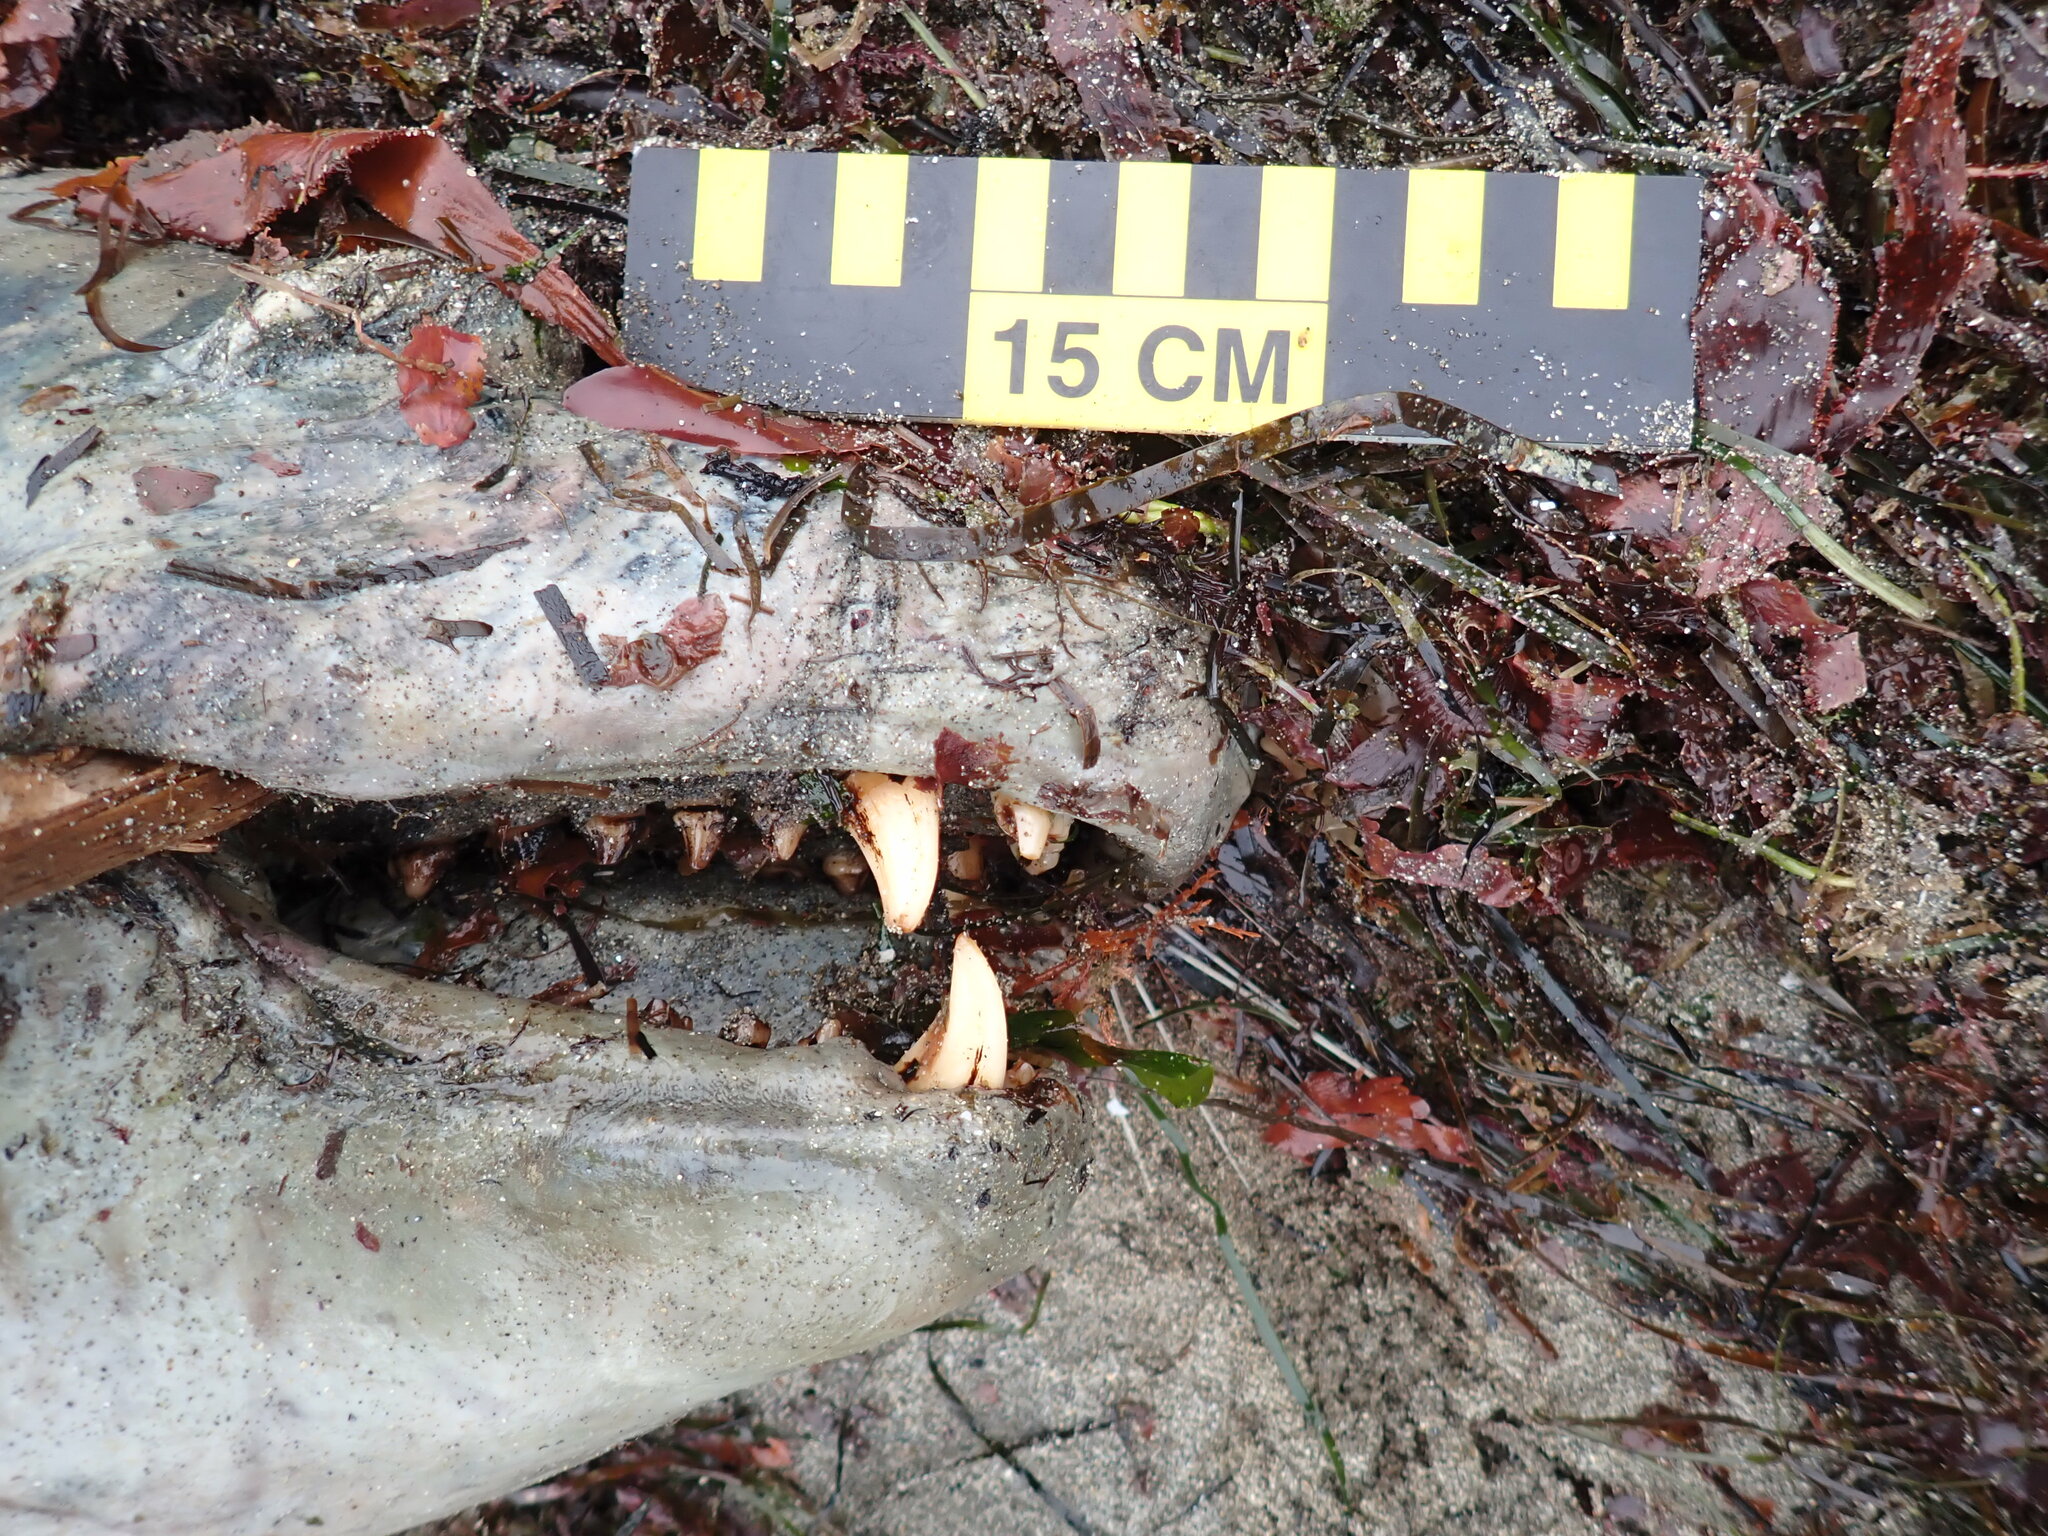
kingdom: Animalia
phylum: Chordata
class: Mammalia
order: Carnivora
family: Otariidae
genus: Zalophus
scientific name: Zalophus californianus
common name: California sea lion
